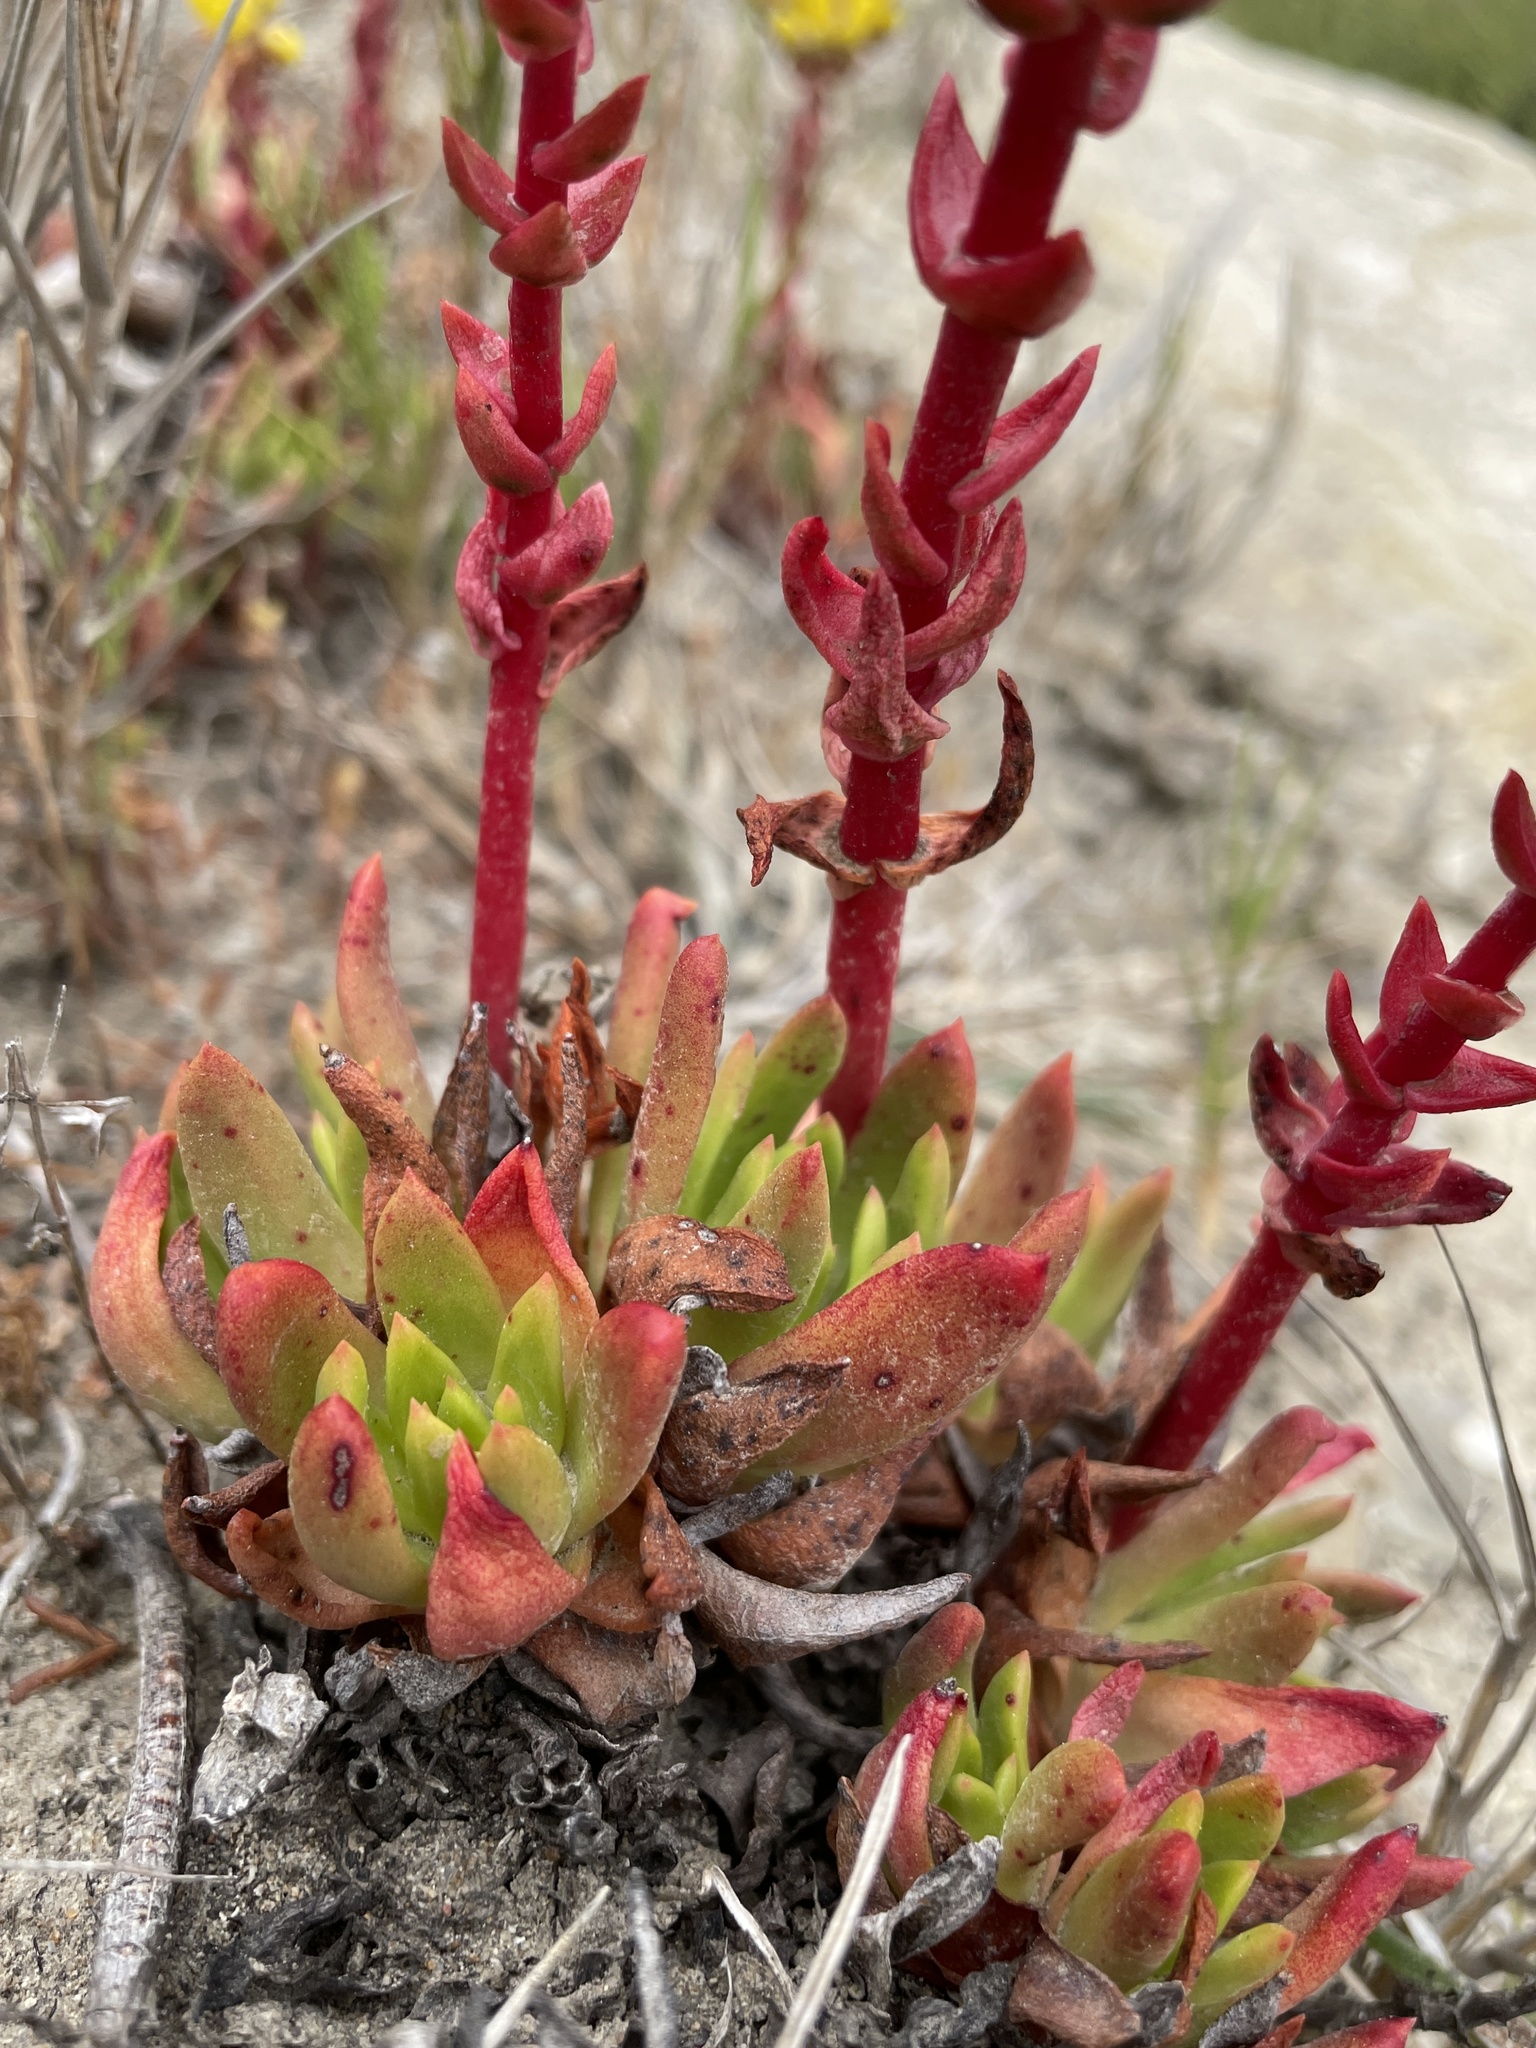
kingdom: Plantae
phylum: Tracheophyta
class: Magnoliopsida
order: Saxifragales
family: Crassulaceae
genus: Dudleya
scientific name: Dudleya caespitosa
